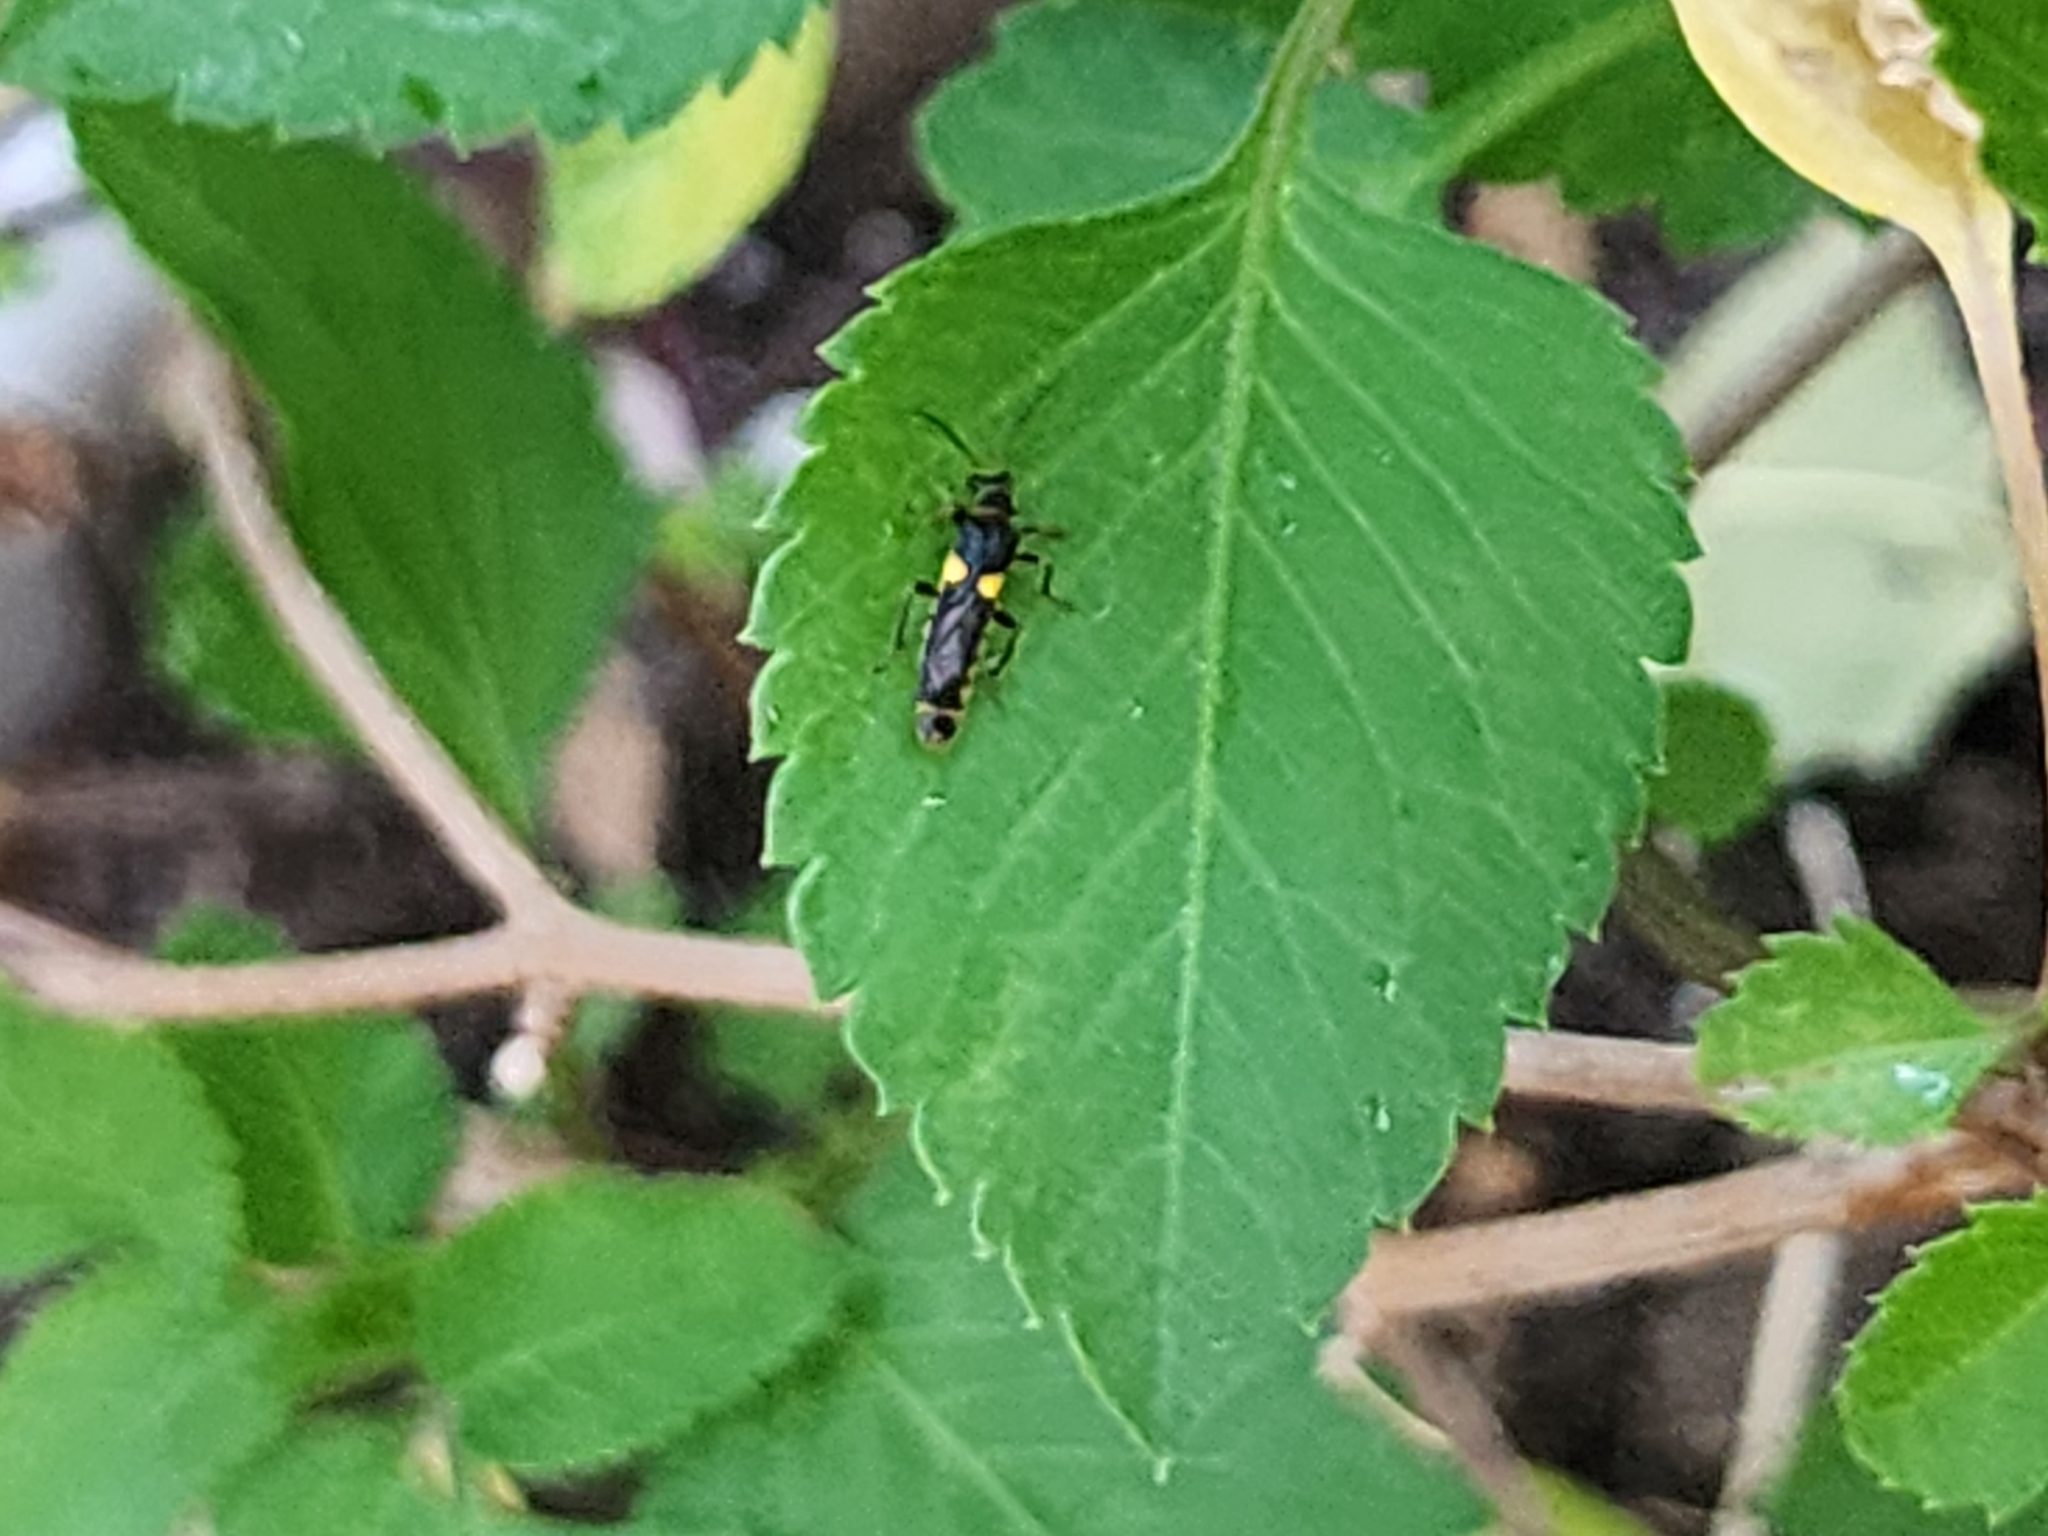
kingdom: Animalia
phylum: Arthropoda
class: Insecta
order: Coleoptera
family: Cantharidae
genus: Trypherus
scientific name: Trypherus frisoni
